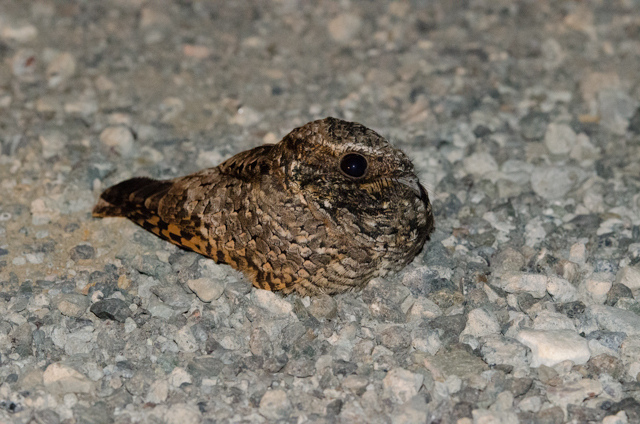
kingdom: Animalia
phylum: Chordata
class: Aves
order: Caprimulgiformes
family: Caprimulgidae
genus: Phalaenoptilus
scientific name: Phalaenoptilus nuttallii
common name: Common poorwill
